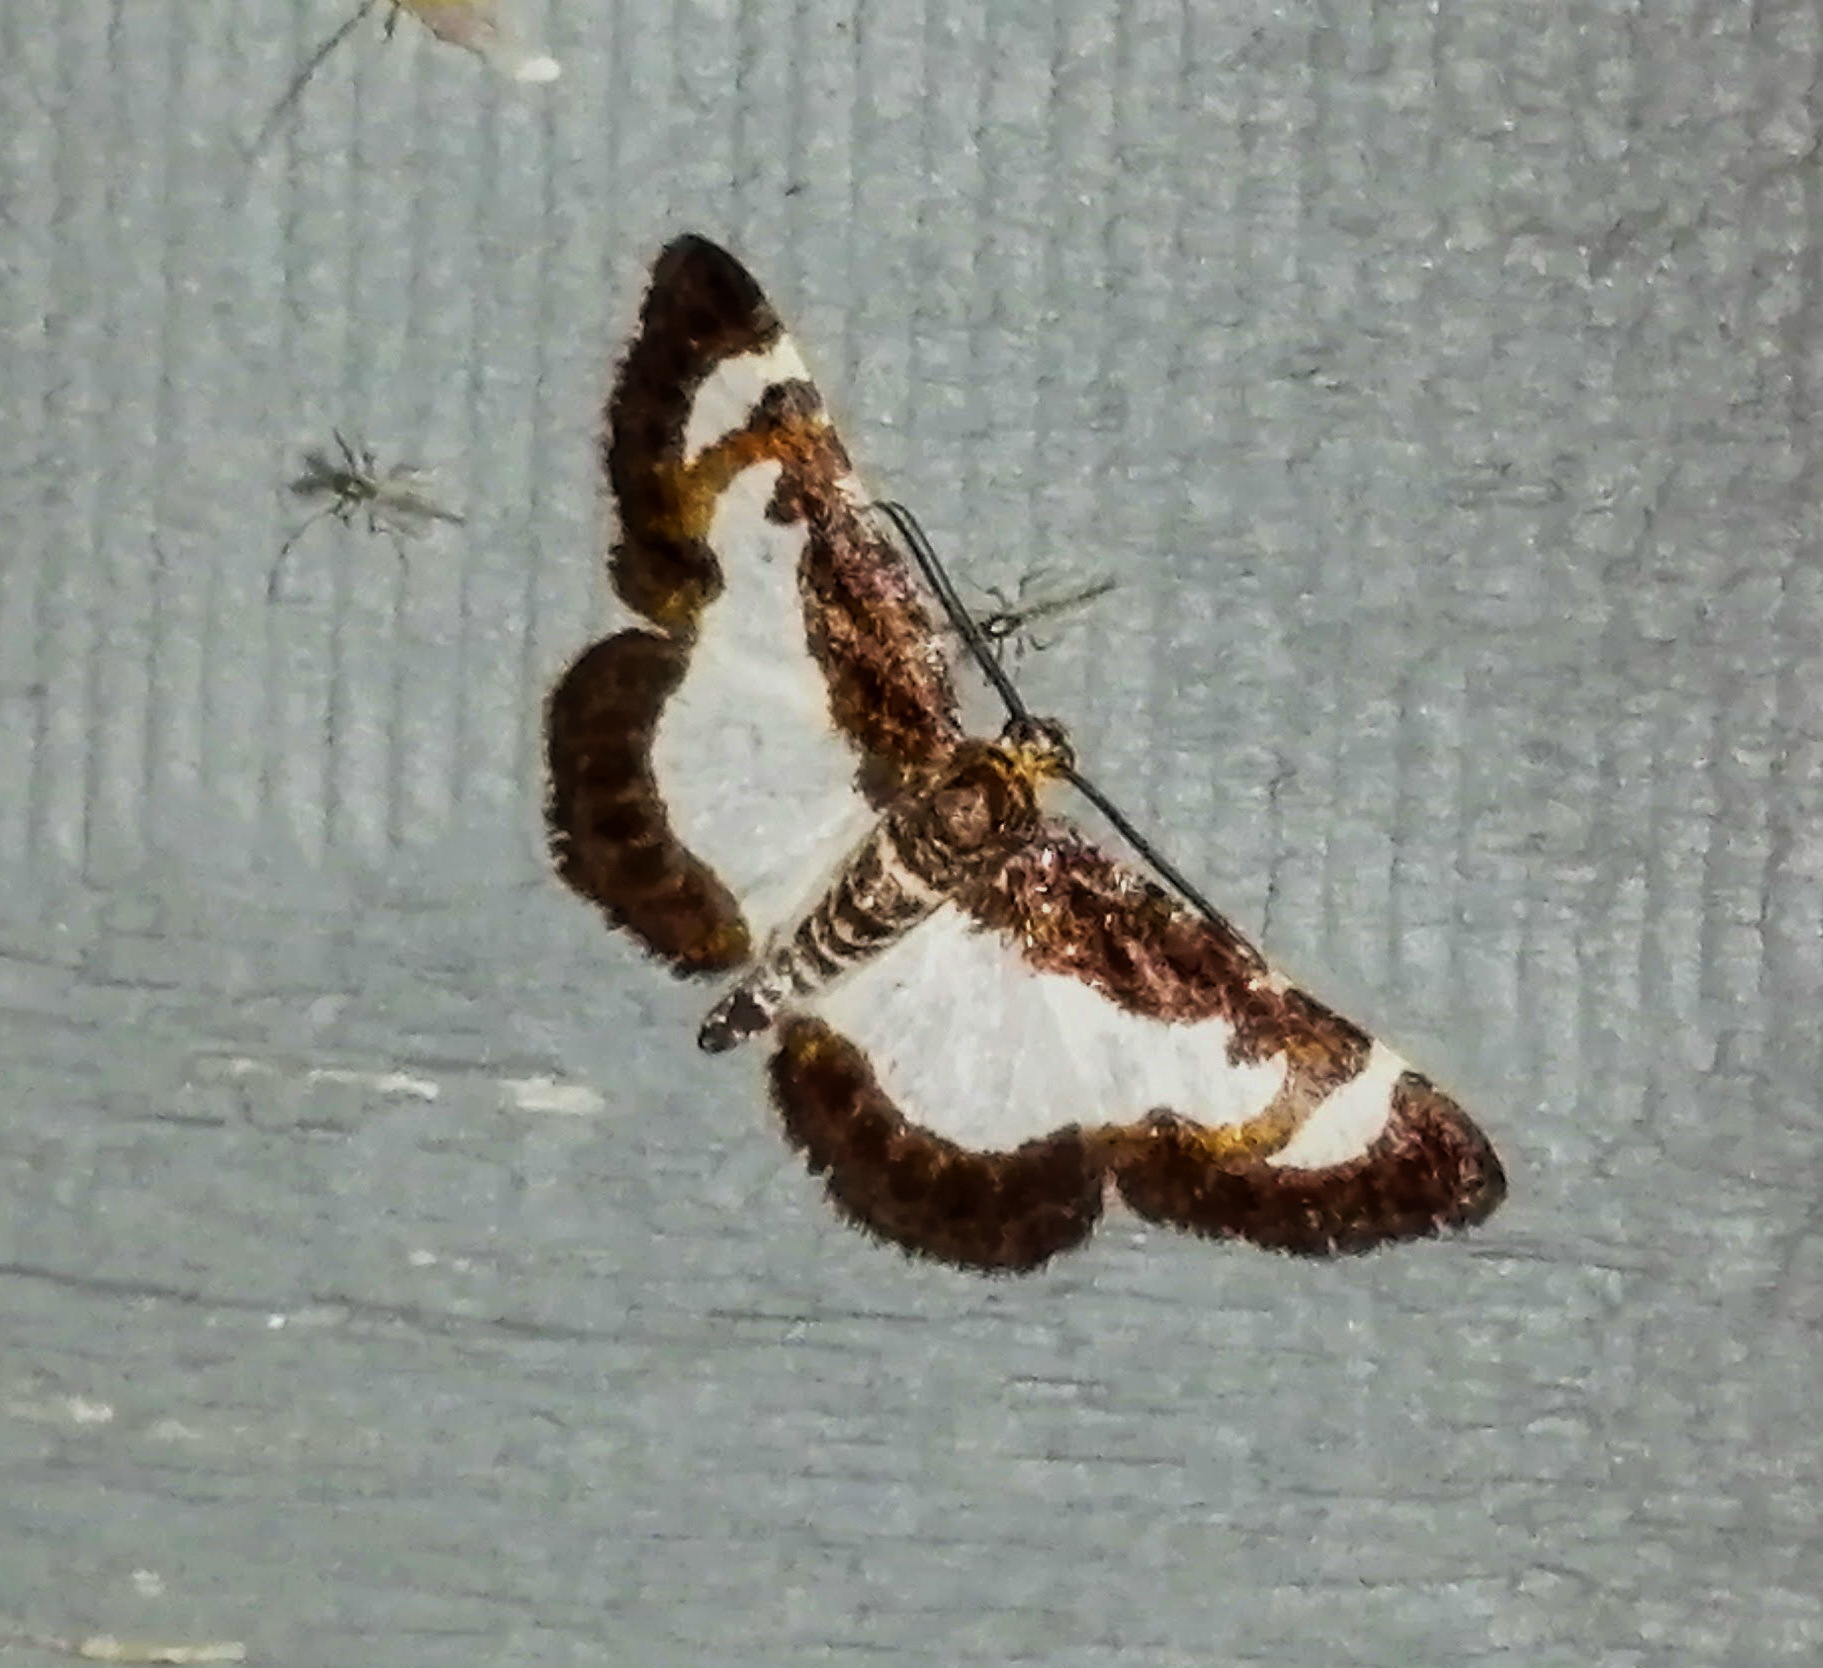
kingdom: Animalia
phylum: Arthropoda
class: Insecta
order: Lepidoptera
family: Geometridae
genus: Heliomata
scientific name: Heliomata cycladata
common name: Common spring moth
